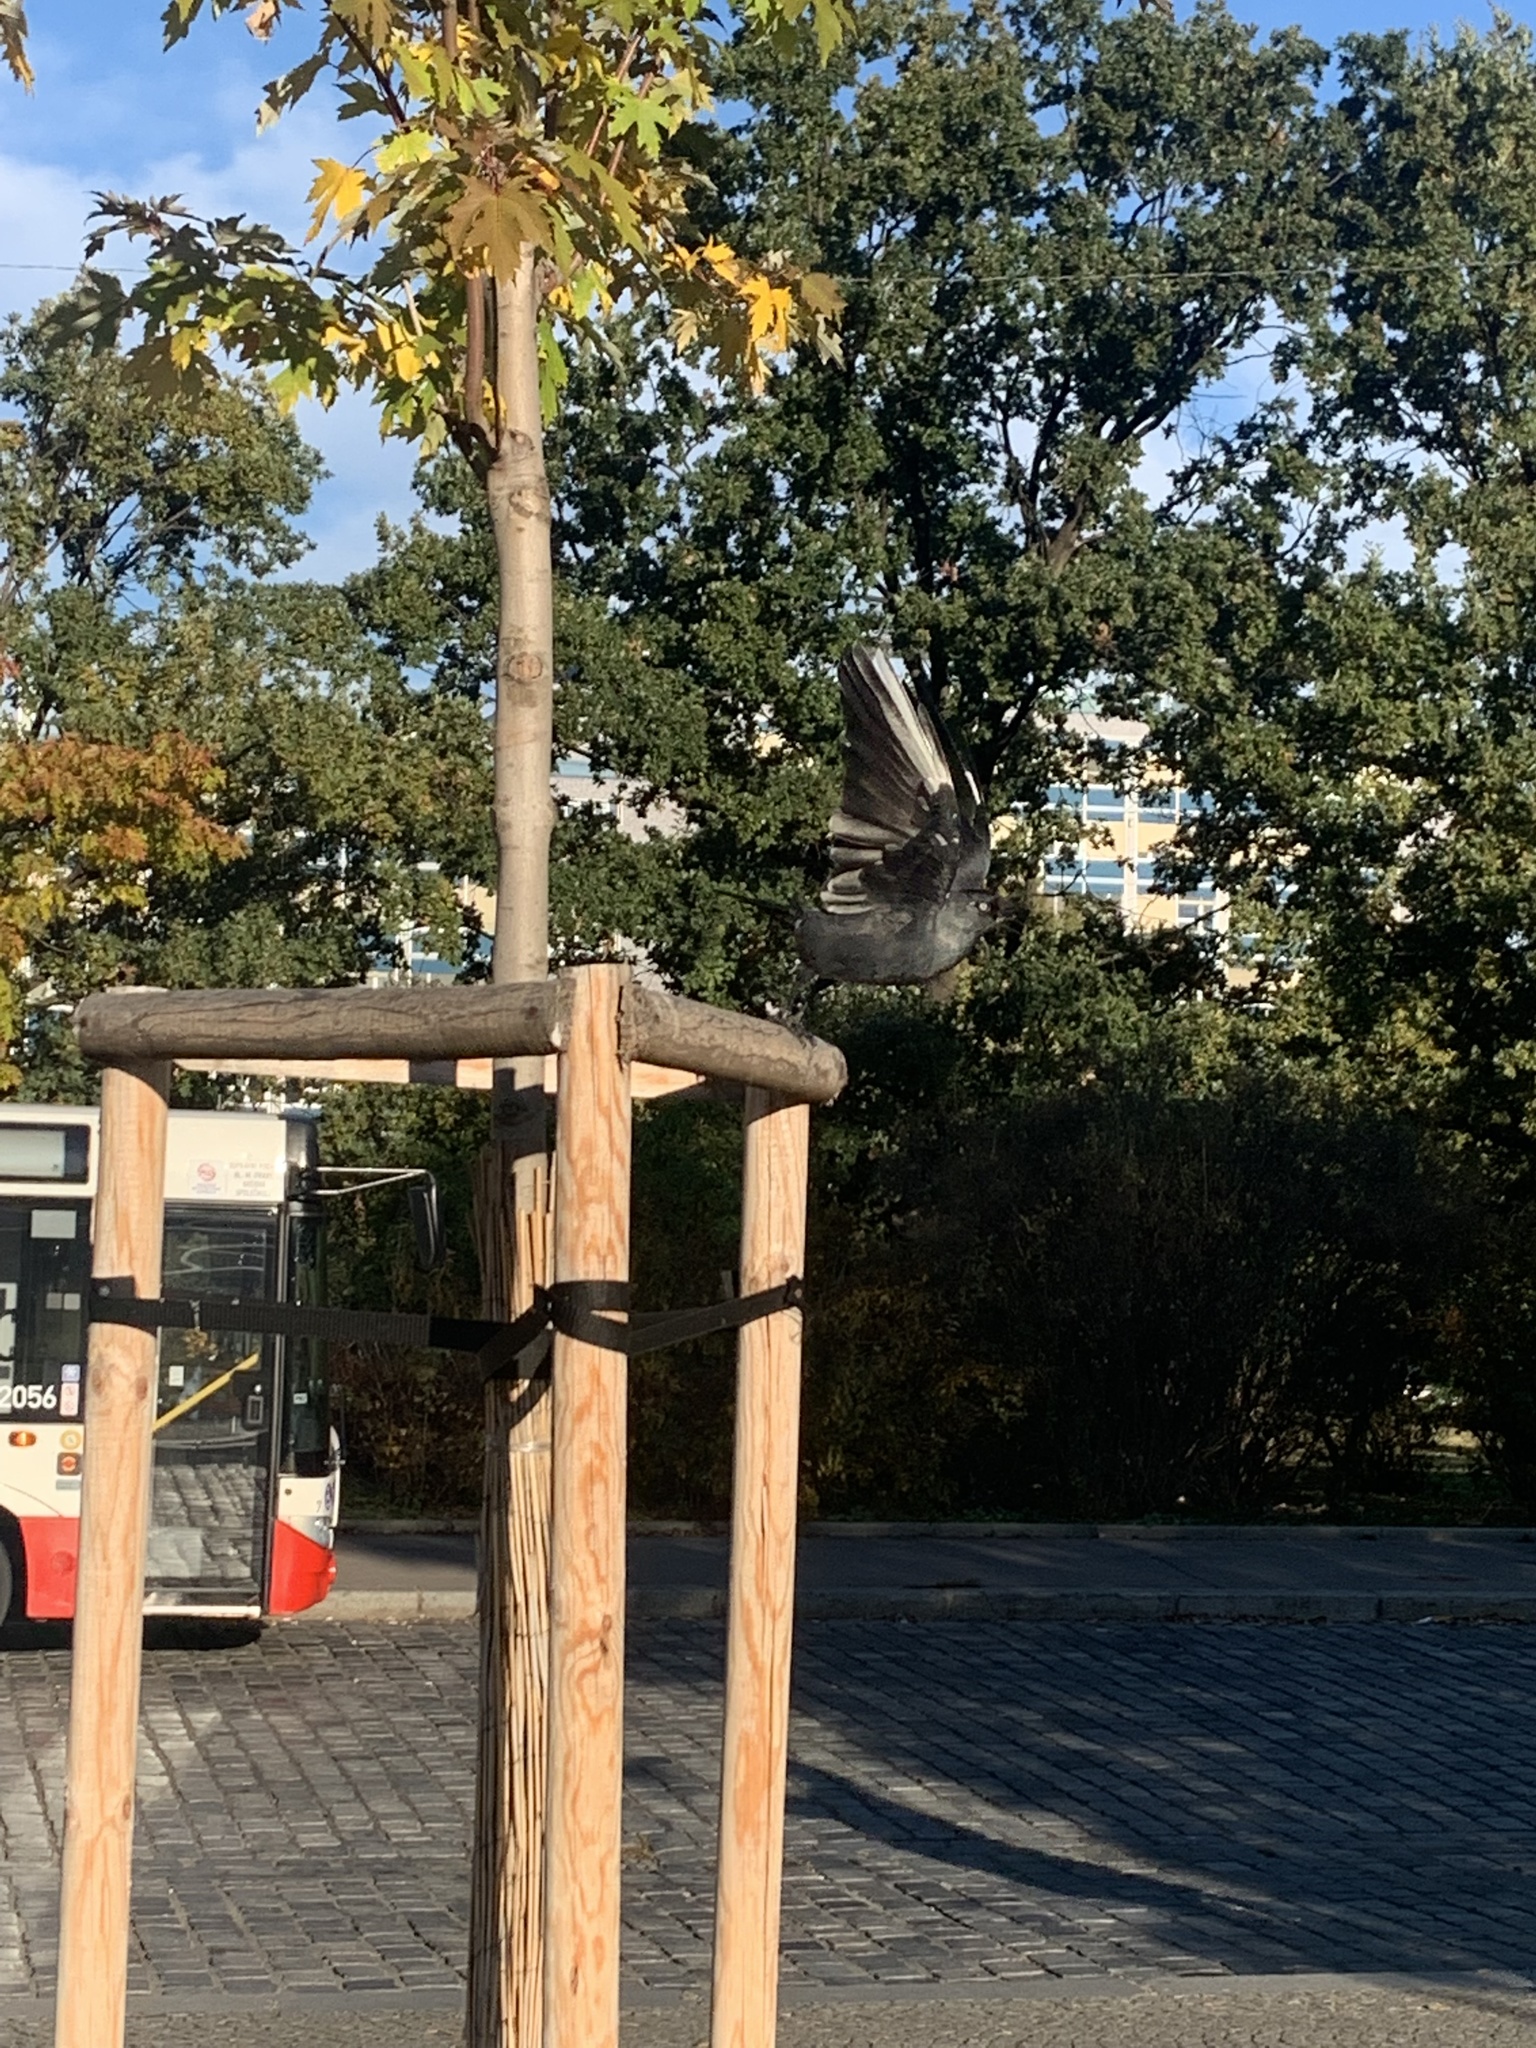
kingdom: Animalia
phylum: Chordata
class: Aves
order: Passeriformes
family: Corvidae
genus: Coloeus
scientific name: Coloeus monedula
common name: Western jackdaw
